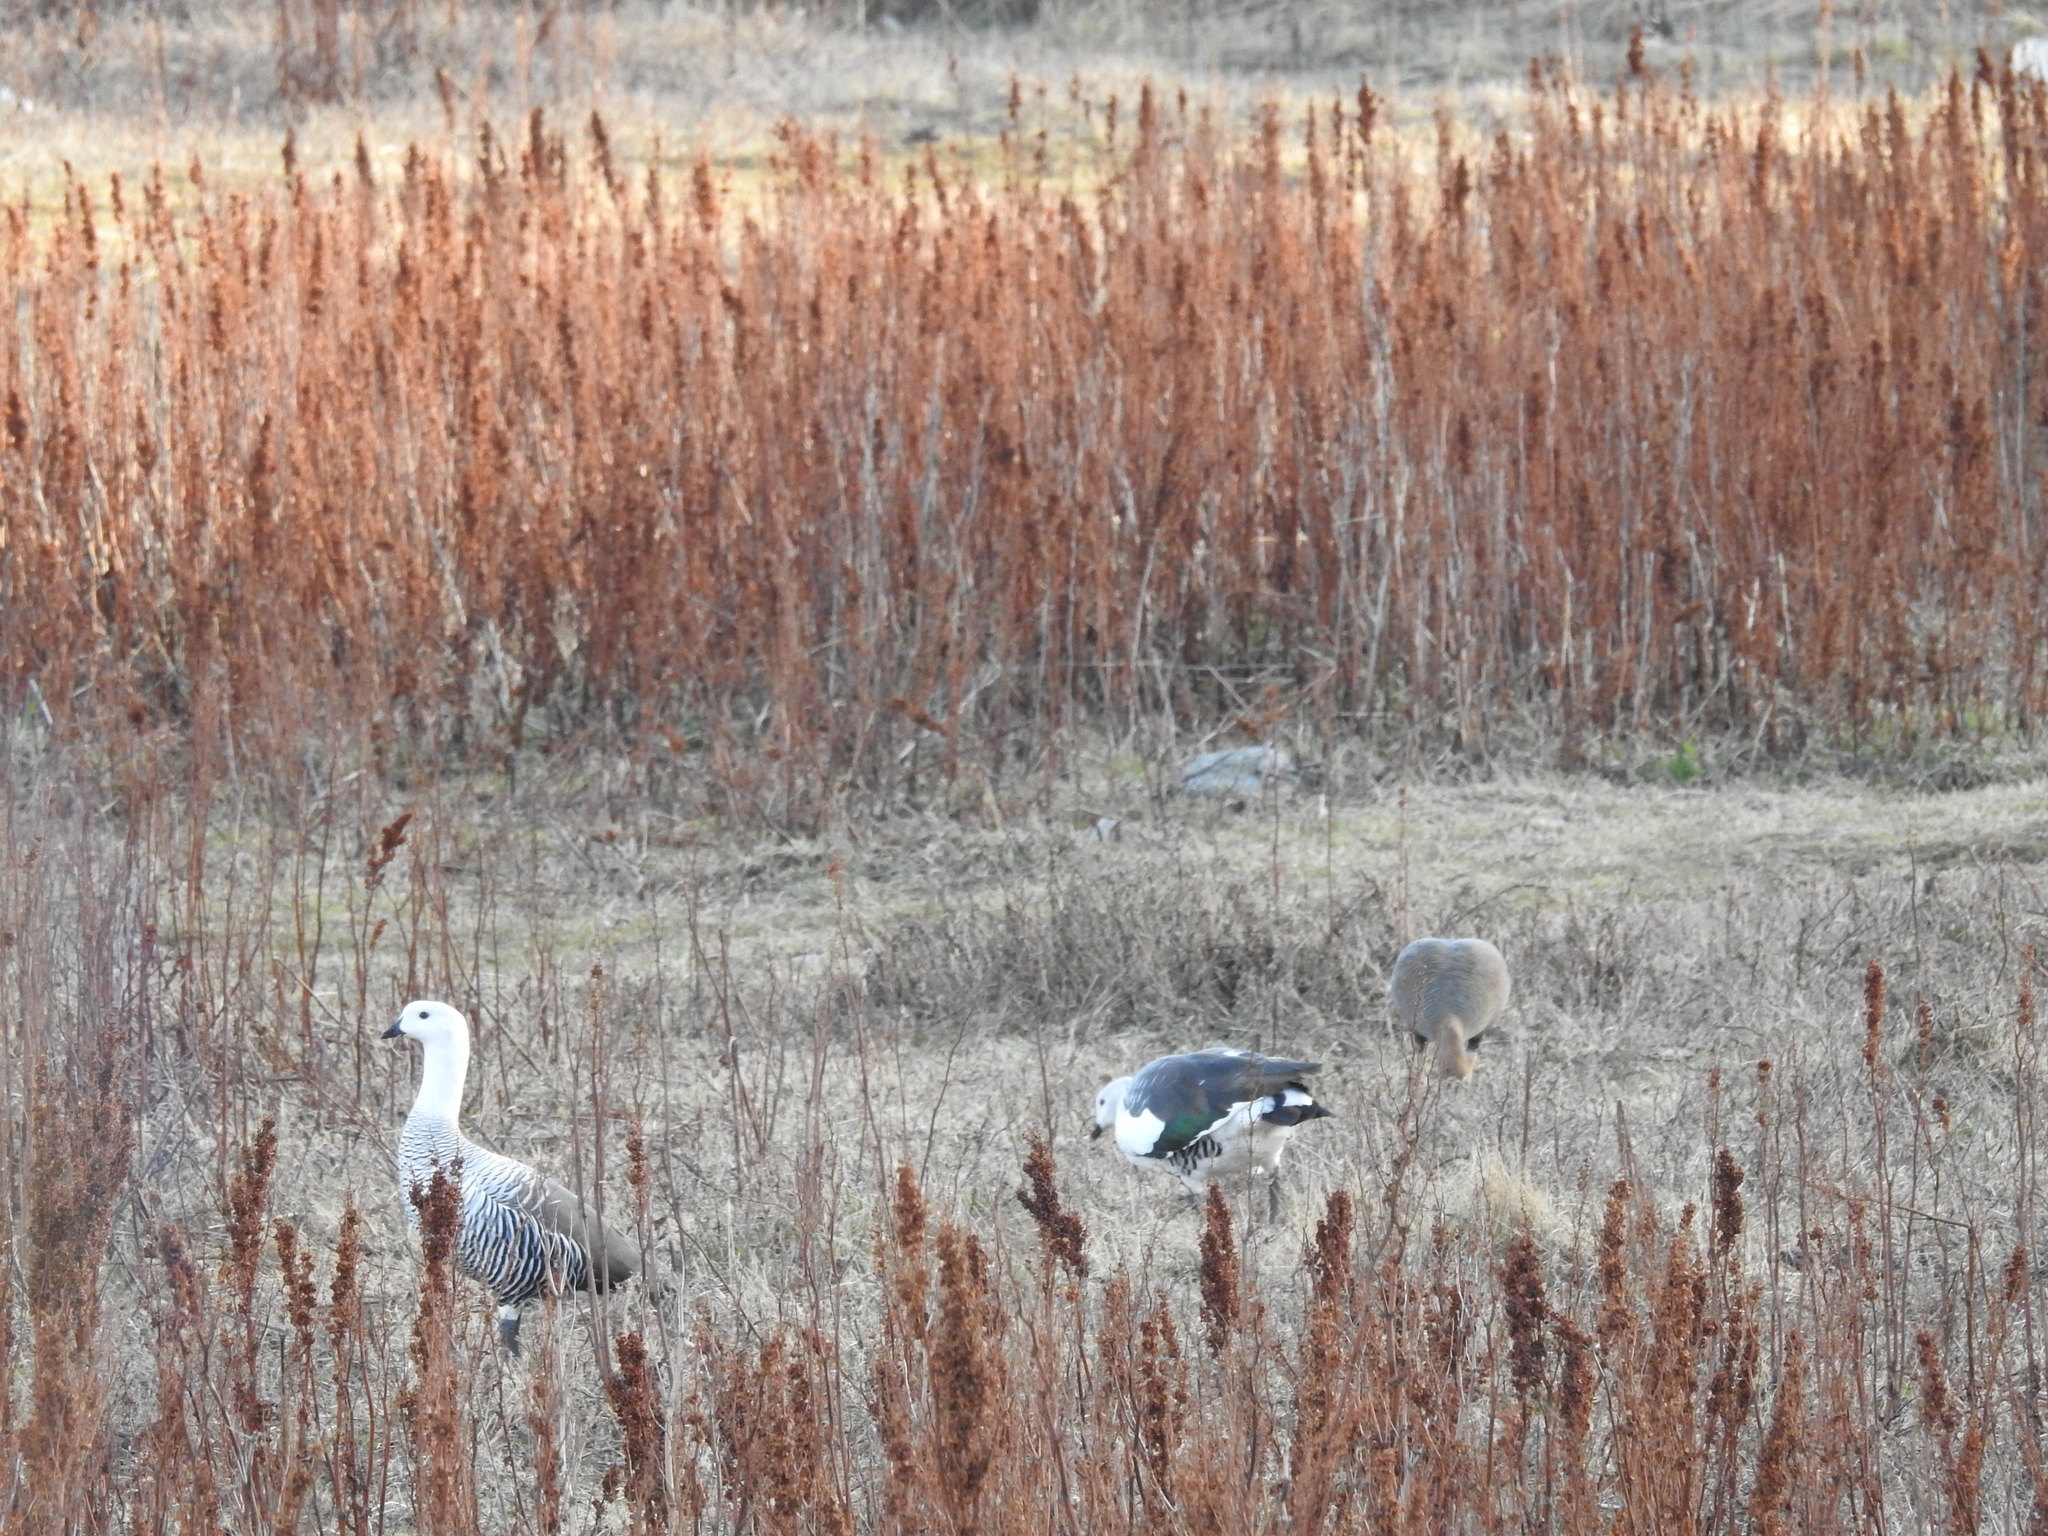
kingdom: Animalia
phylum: Chordata
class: Aves
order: Anseriformes
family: Anatidae
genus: Chloephaga
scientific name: Chloephaga picta
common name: Upland goose
